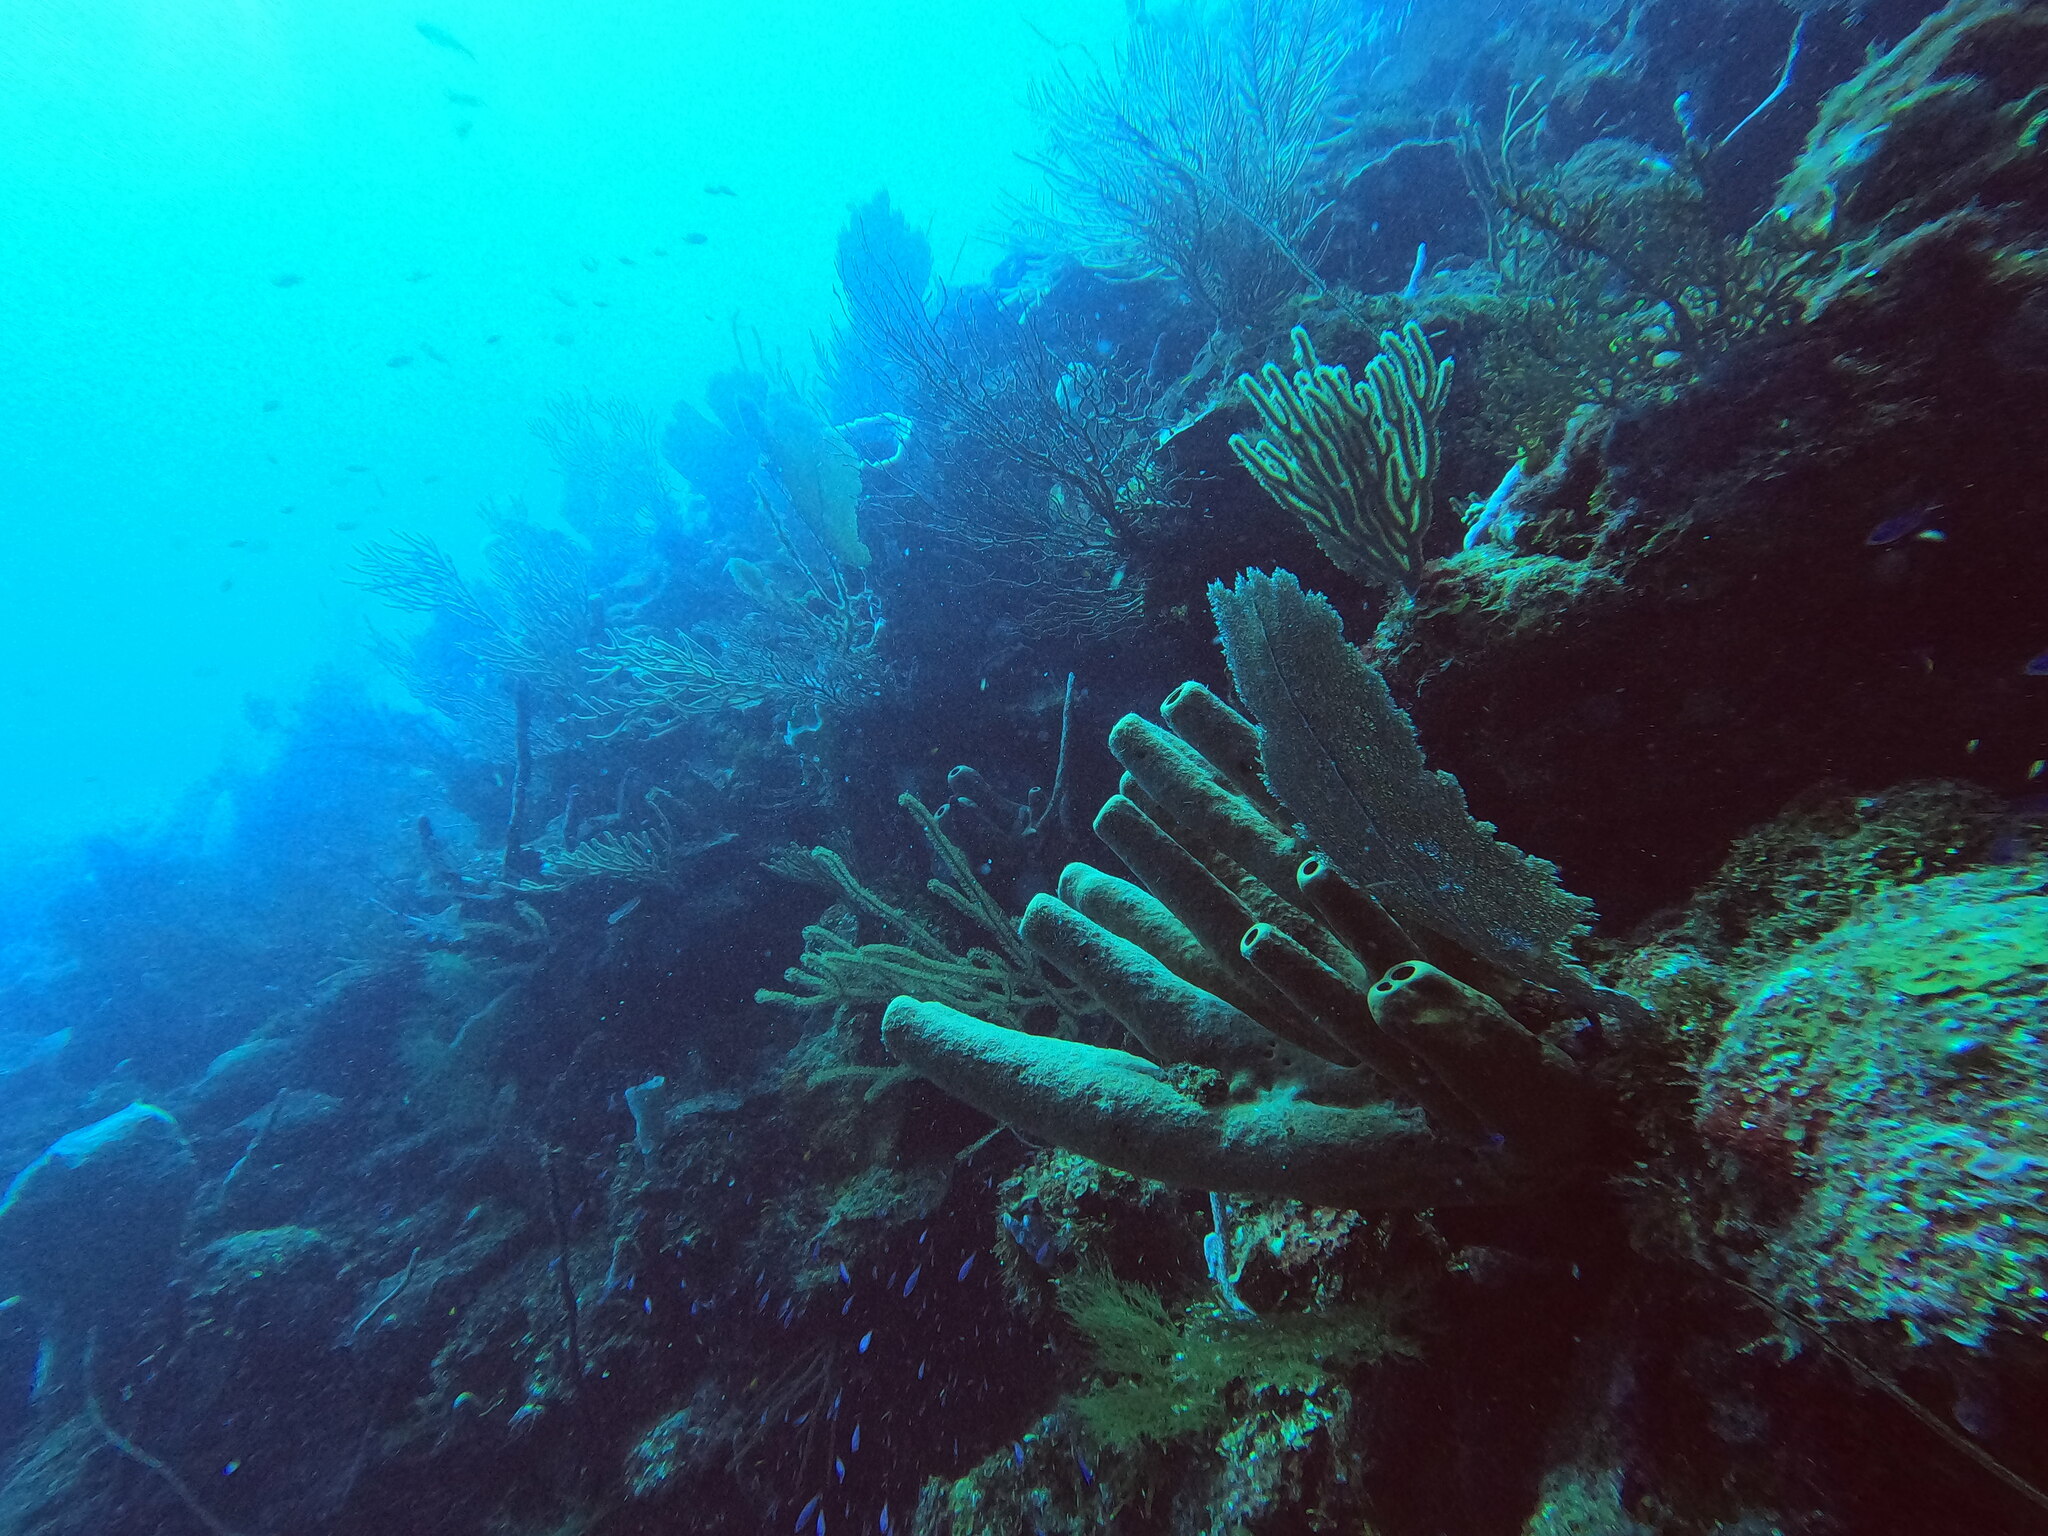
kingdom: Animalia
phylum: Porifera
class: Demospongiae
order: Agelasida
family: Agelasidae
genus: Agelas
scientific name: Agelas tubulata
